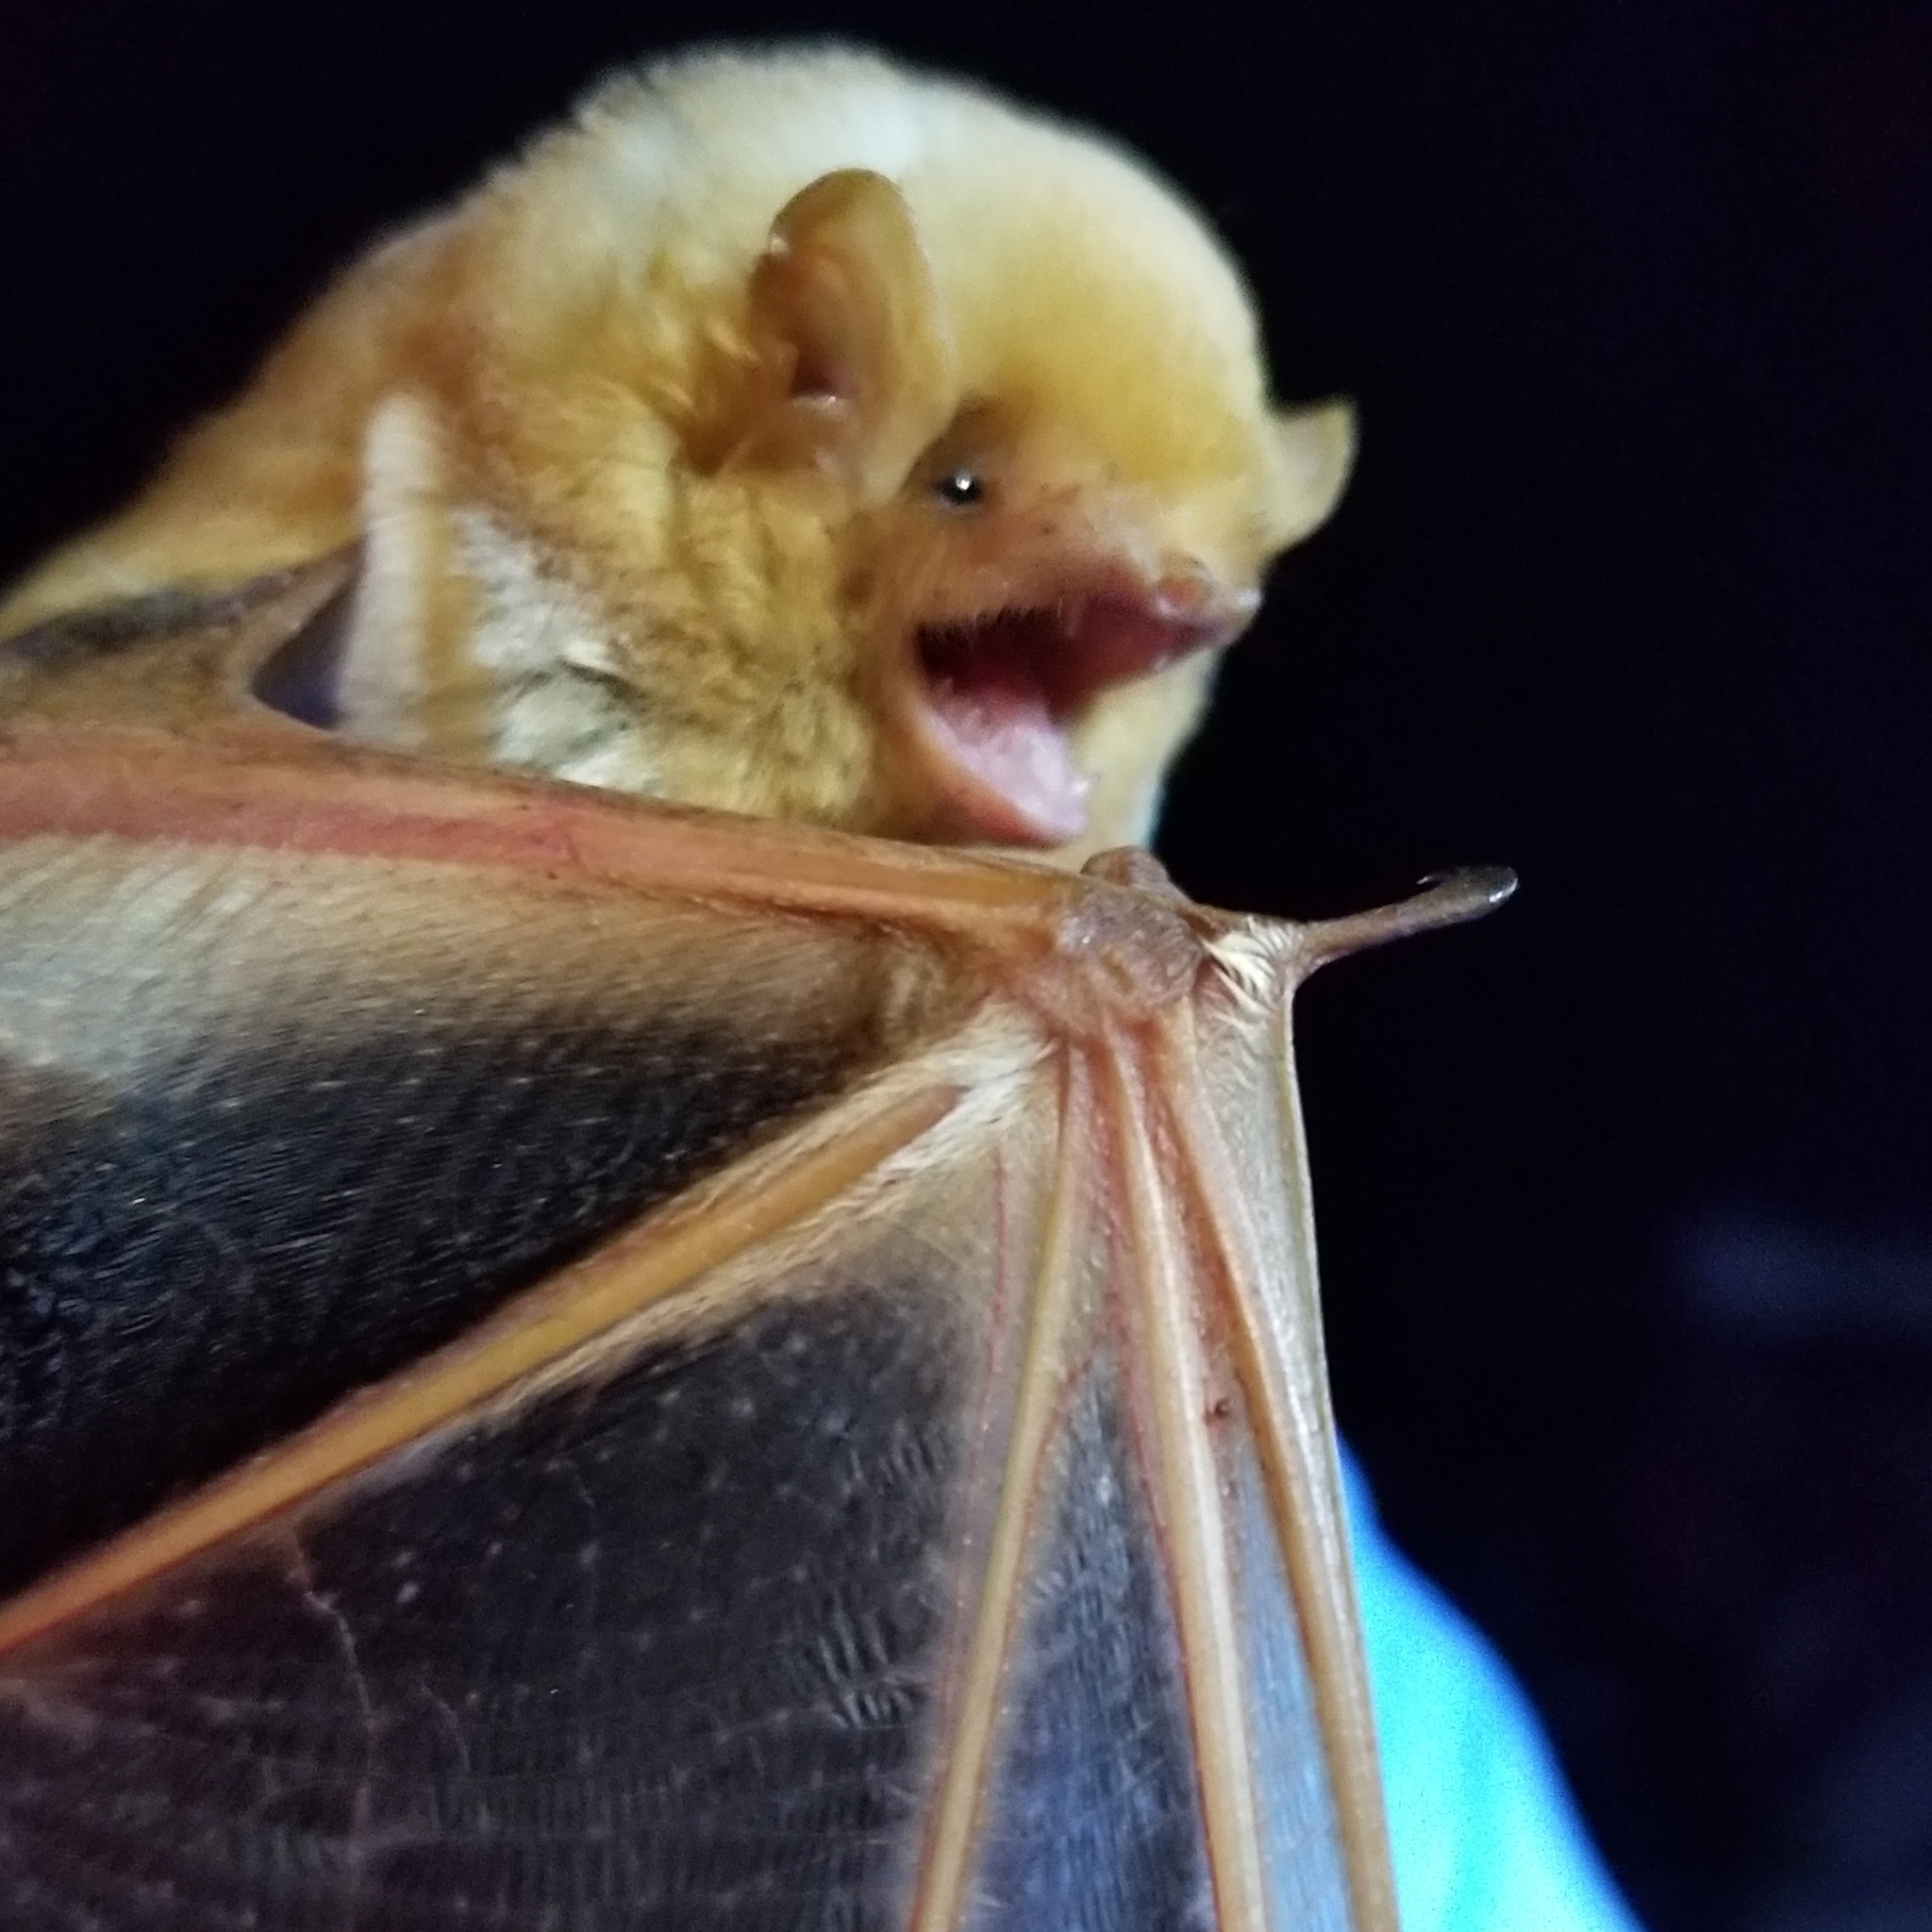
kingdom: Animalia
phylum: Chordata
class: Mammalia
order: Chiroptera
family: Vespertilionidae
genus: Lasiurus
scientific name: Lasiurus borealis
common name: Eastern red bat
